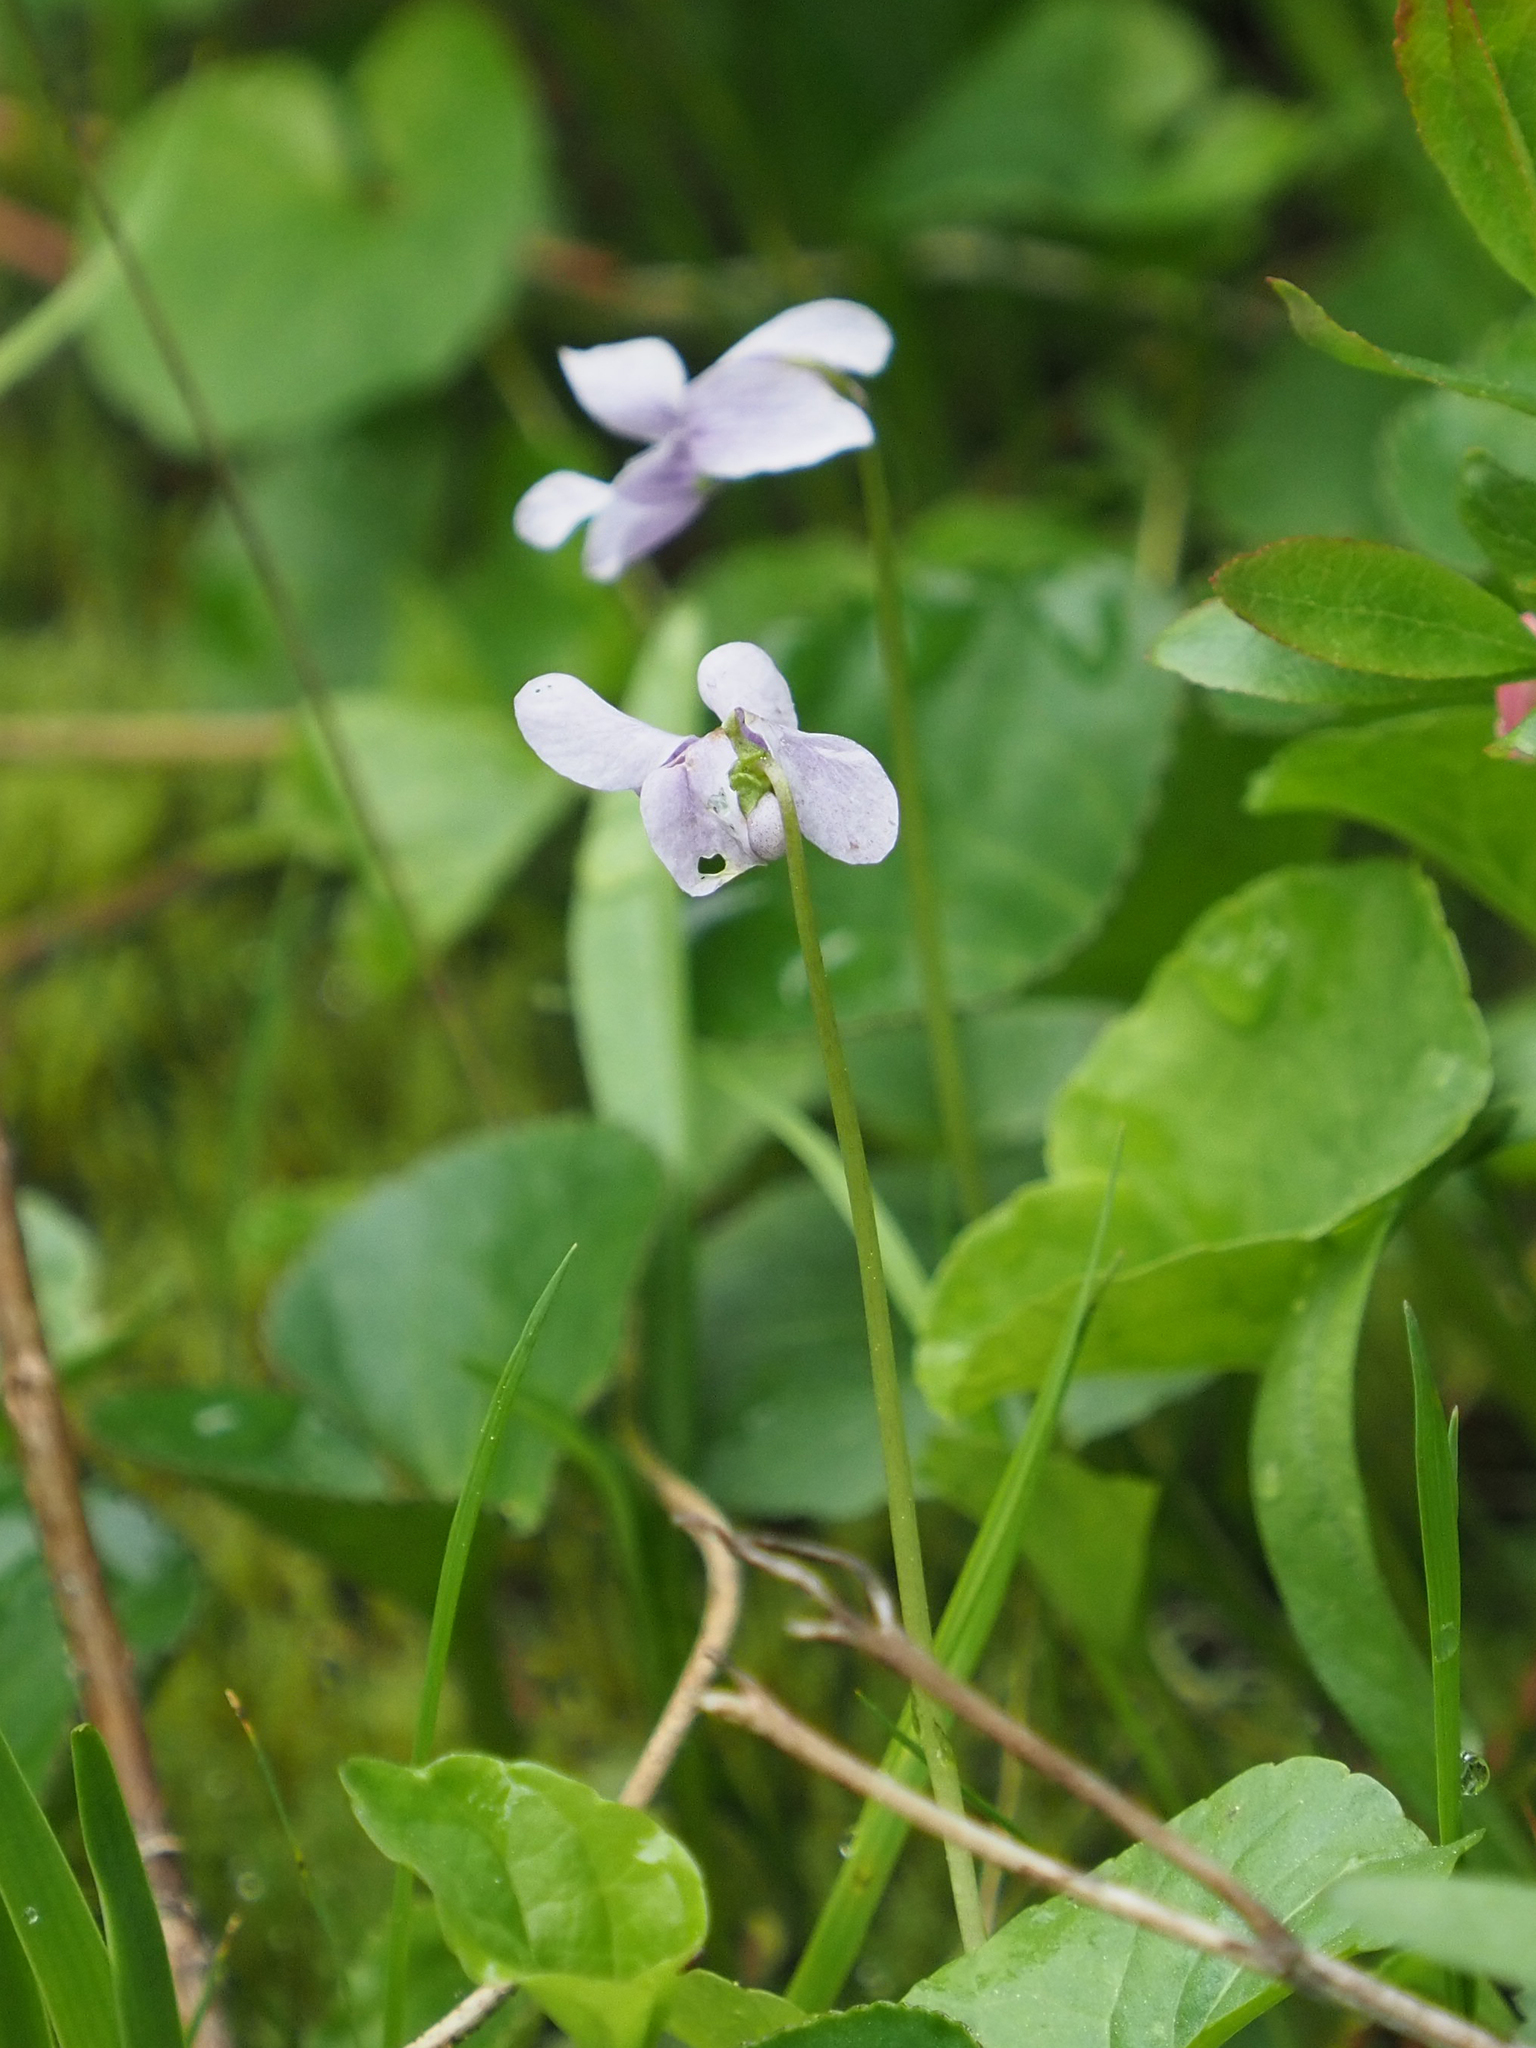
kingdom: Plantae
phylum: Tracheophyta
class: Magnoliopsida
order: Malpighiales
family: Violaceae
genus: Viola
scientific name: Viola palustris
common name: Marsh violet
